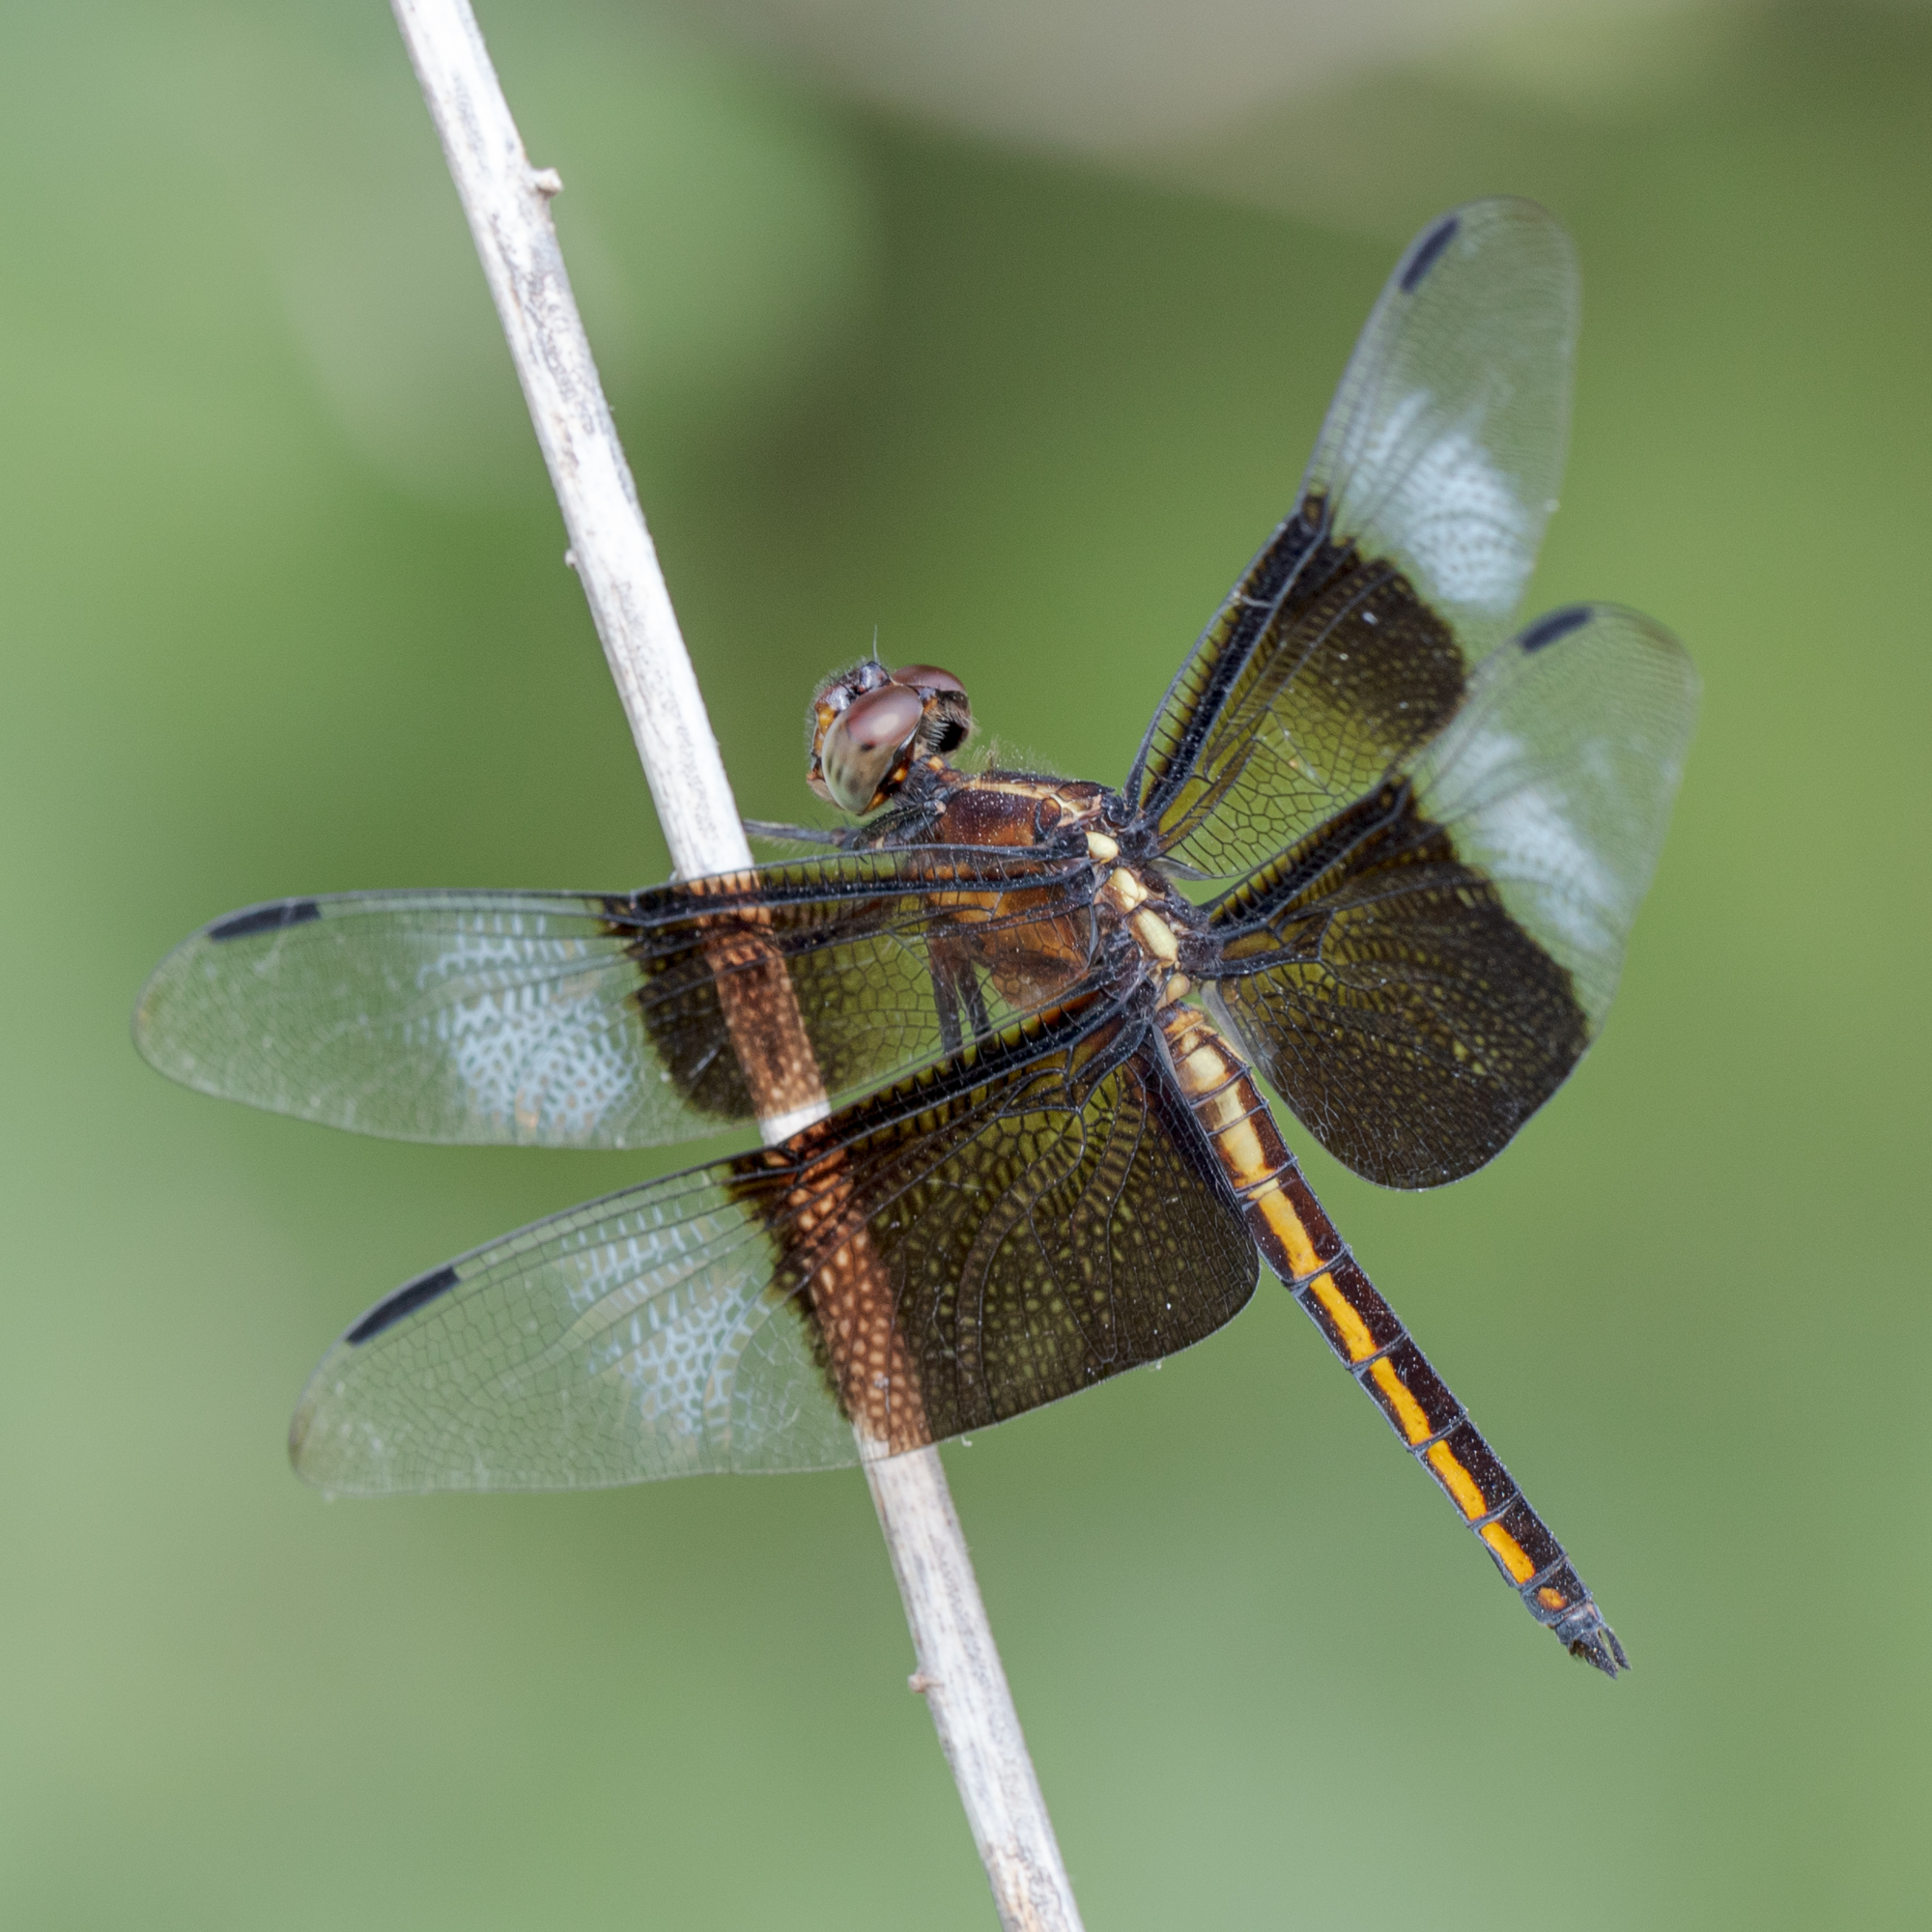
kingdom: Animalia
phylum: Arthropoda
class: Insecta
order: Odonata
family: Libellulidae
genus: Libellula
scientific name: Libellula luctuosa
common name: Widow skimmer
